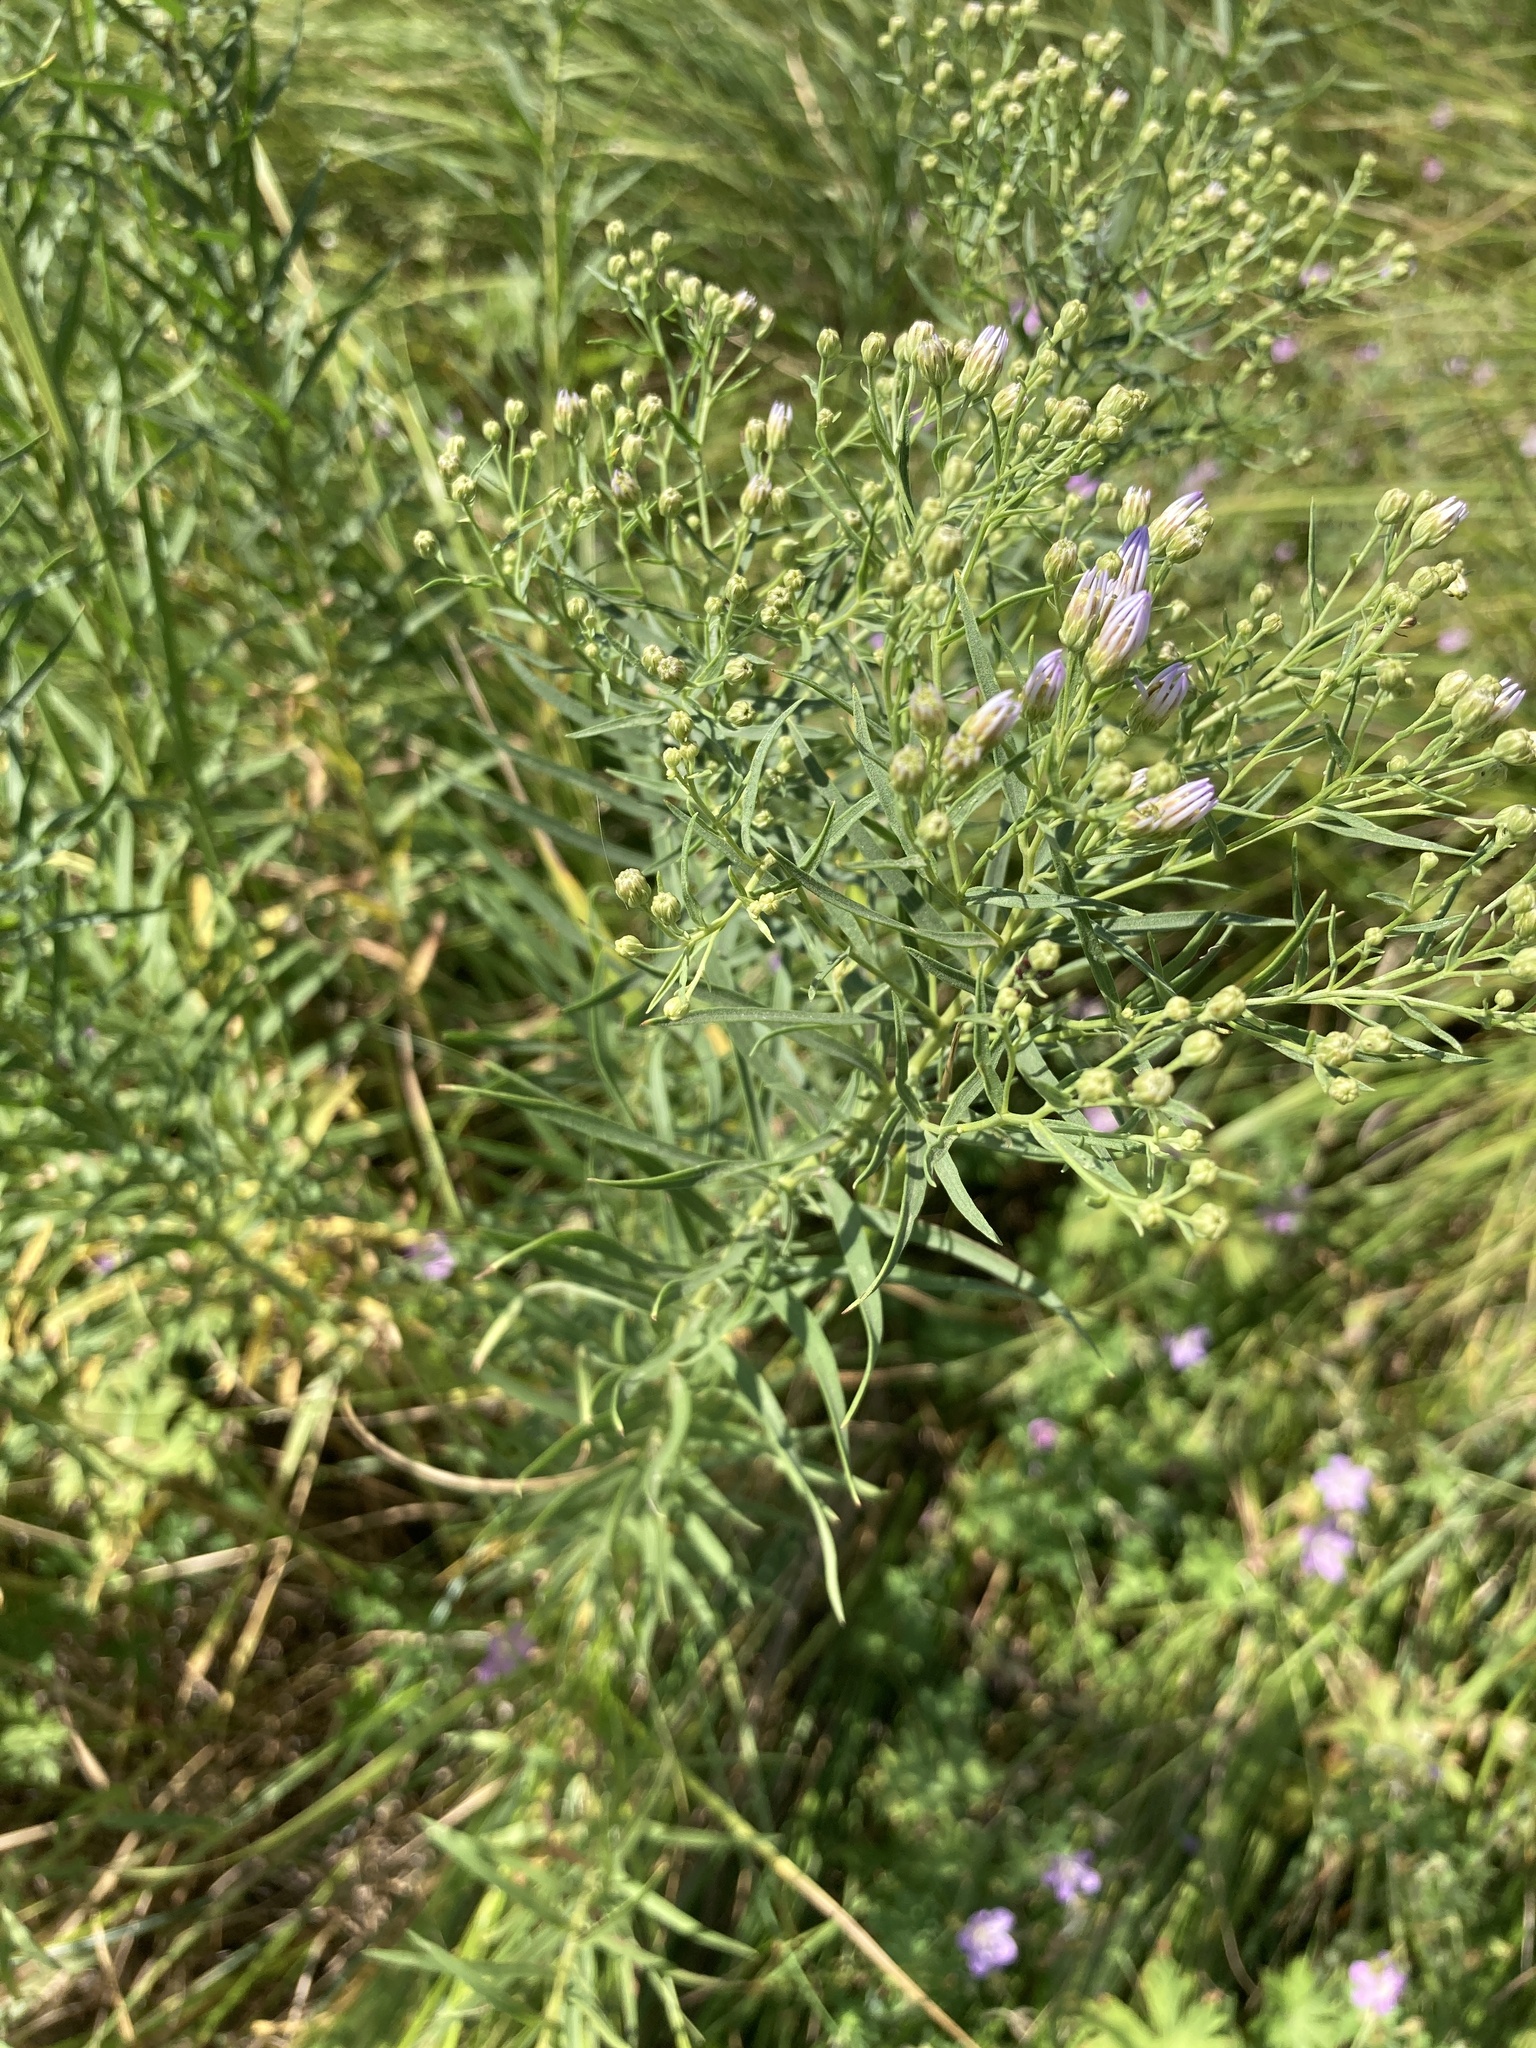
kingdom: Plantae
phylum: Tracheophyta
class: Magnoliopsida
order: Asterales
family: Asteraceae
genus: Erigeron
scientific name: Erigeron canadensis
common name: Canadian fleabane
